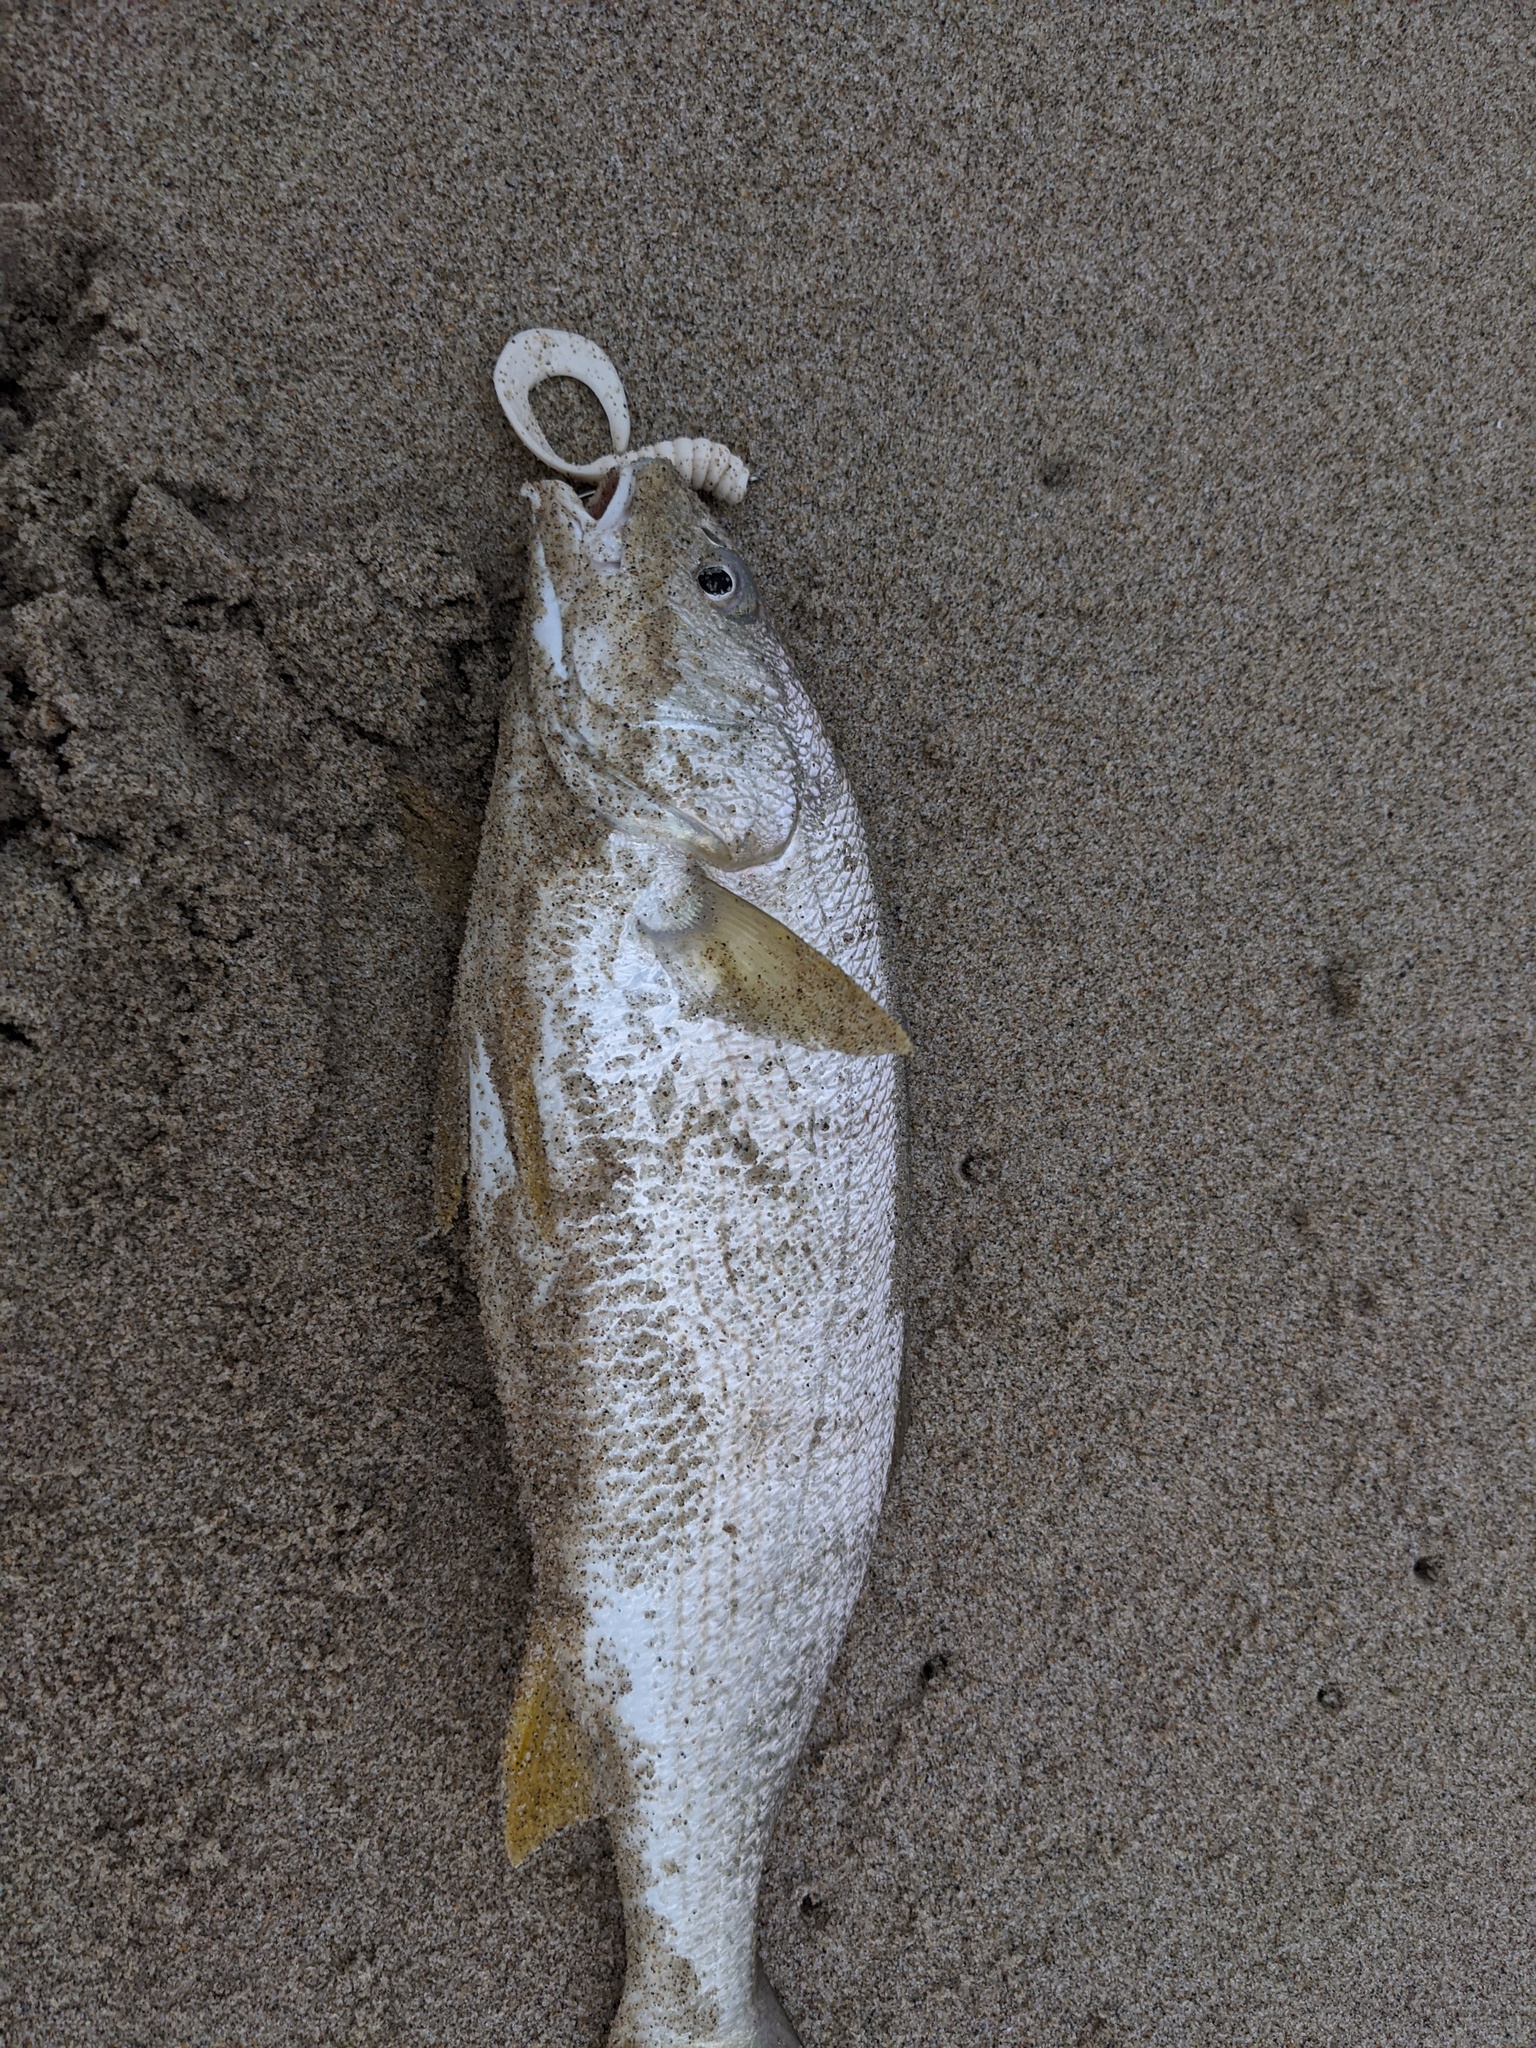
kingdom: Animalia
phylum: Chordata
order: Perciformes
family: Sciaenidae
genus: Umbrina
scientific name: Umbrina roncador
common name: Yellowfin croaker
